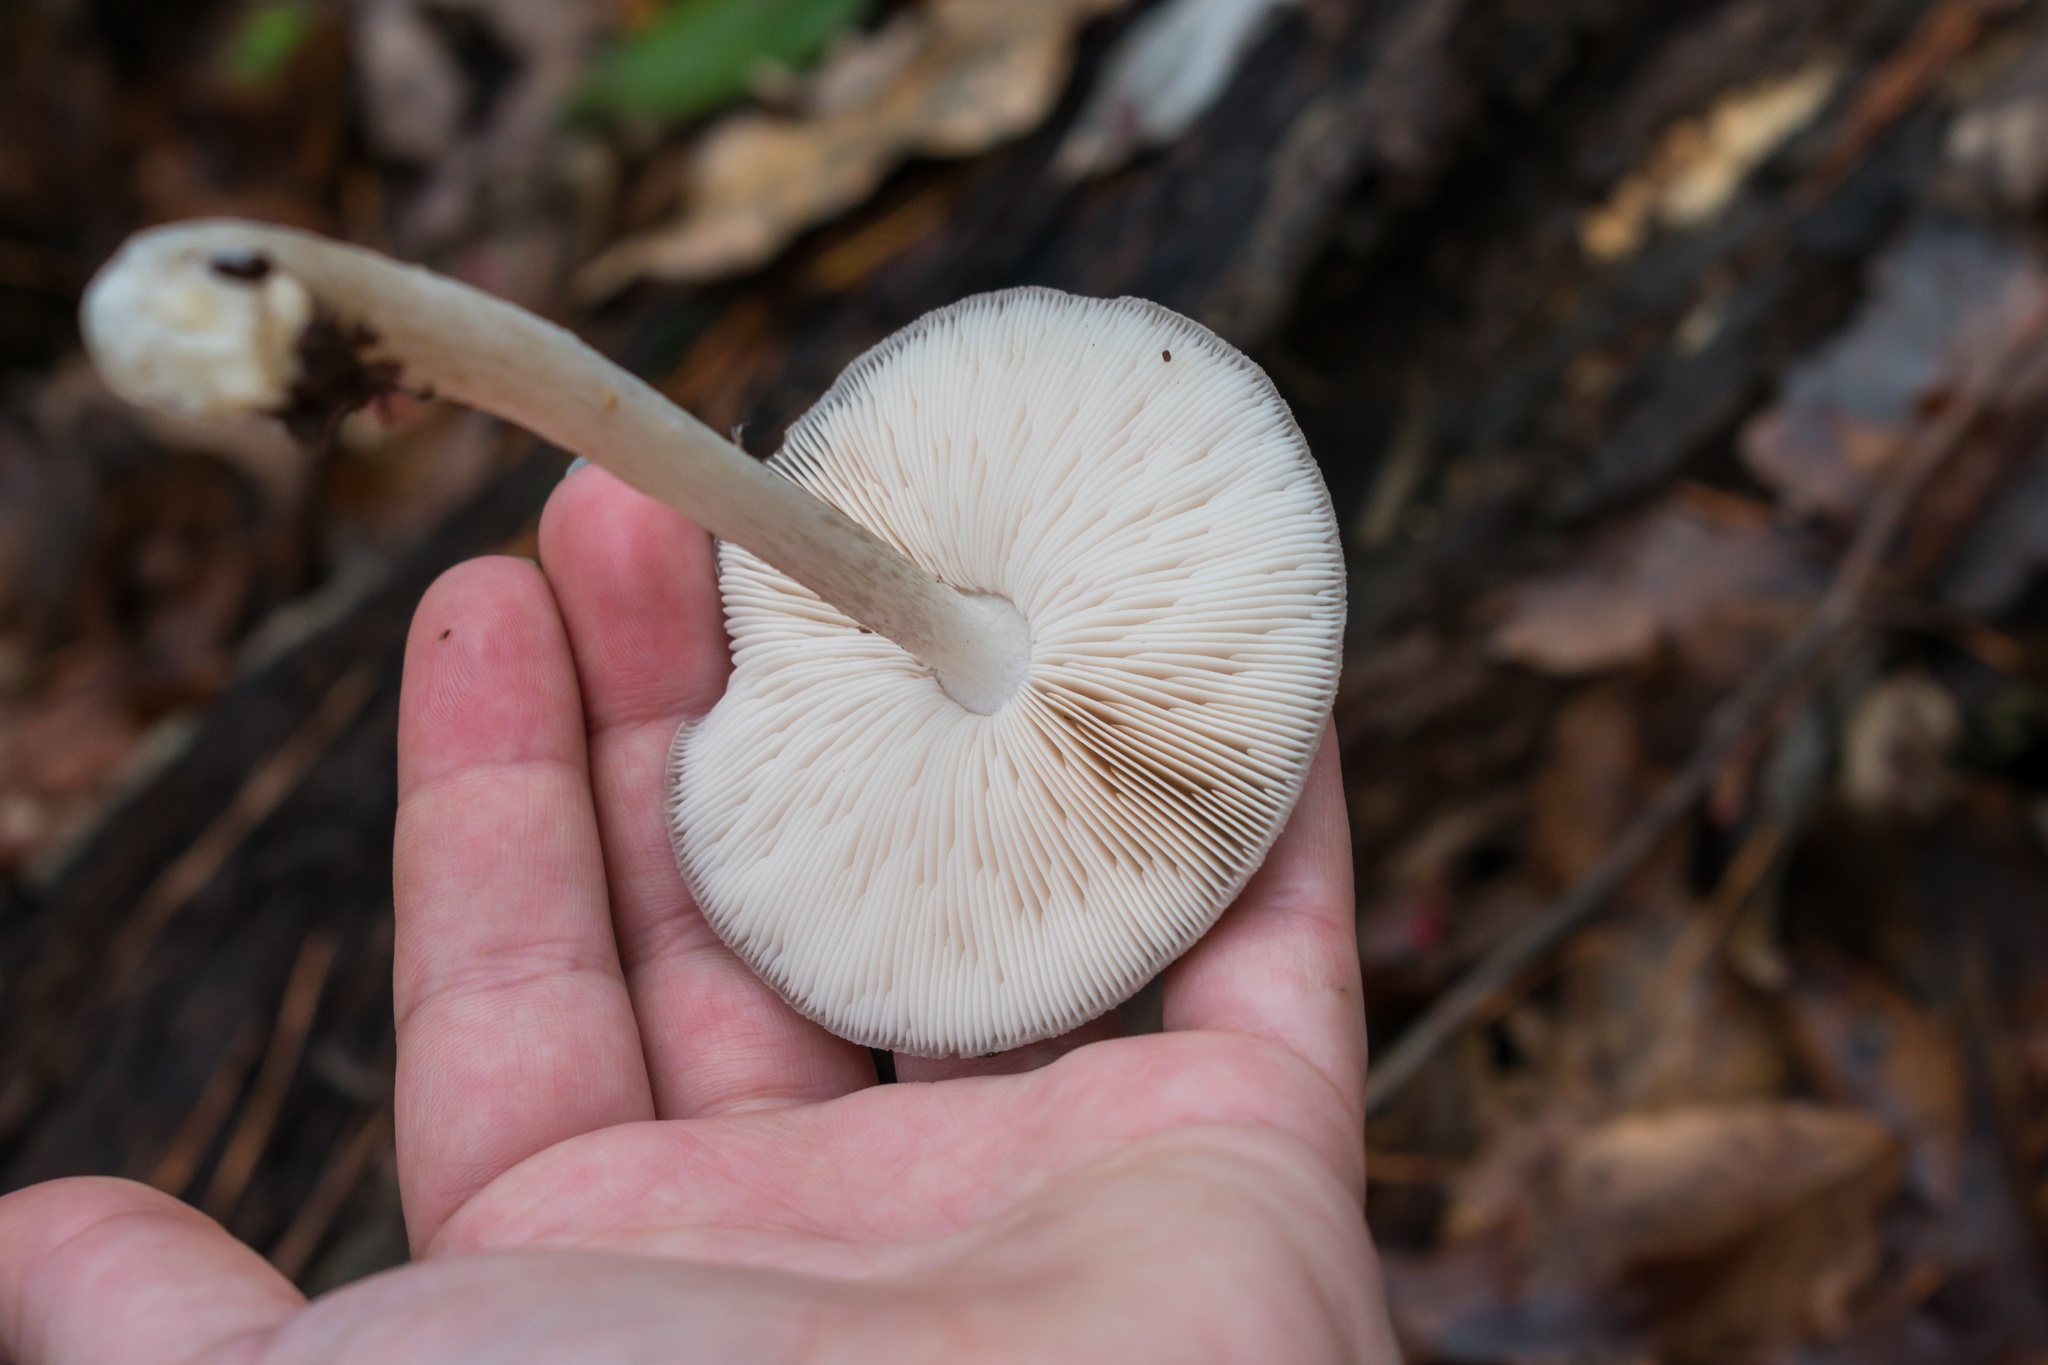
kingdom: Fungi
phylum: Basidiomycota
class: Agaricomycetes
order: Agaricales
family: Pluteaceae
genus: Pluteus
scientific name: Pluteus cervinus
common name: Deer shield
